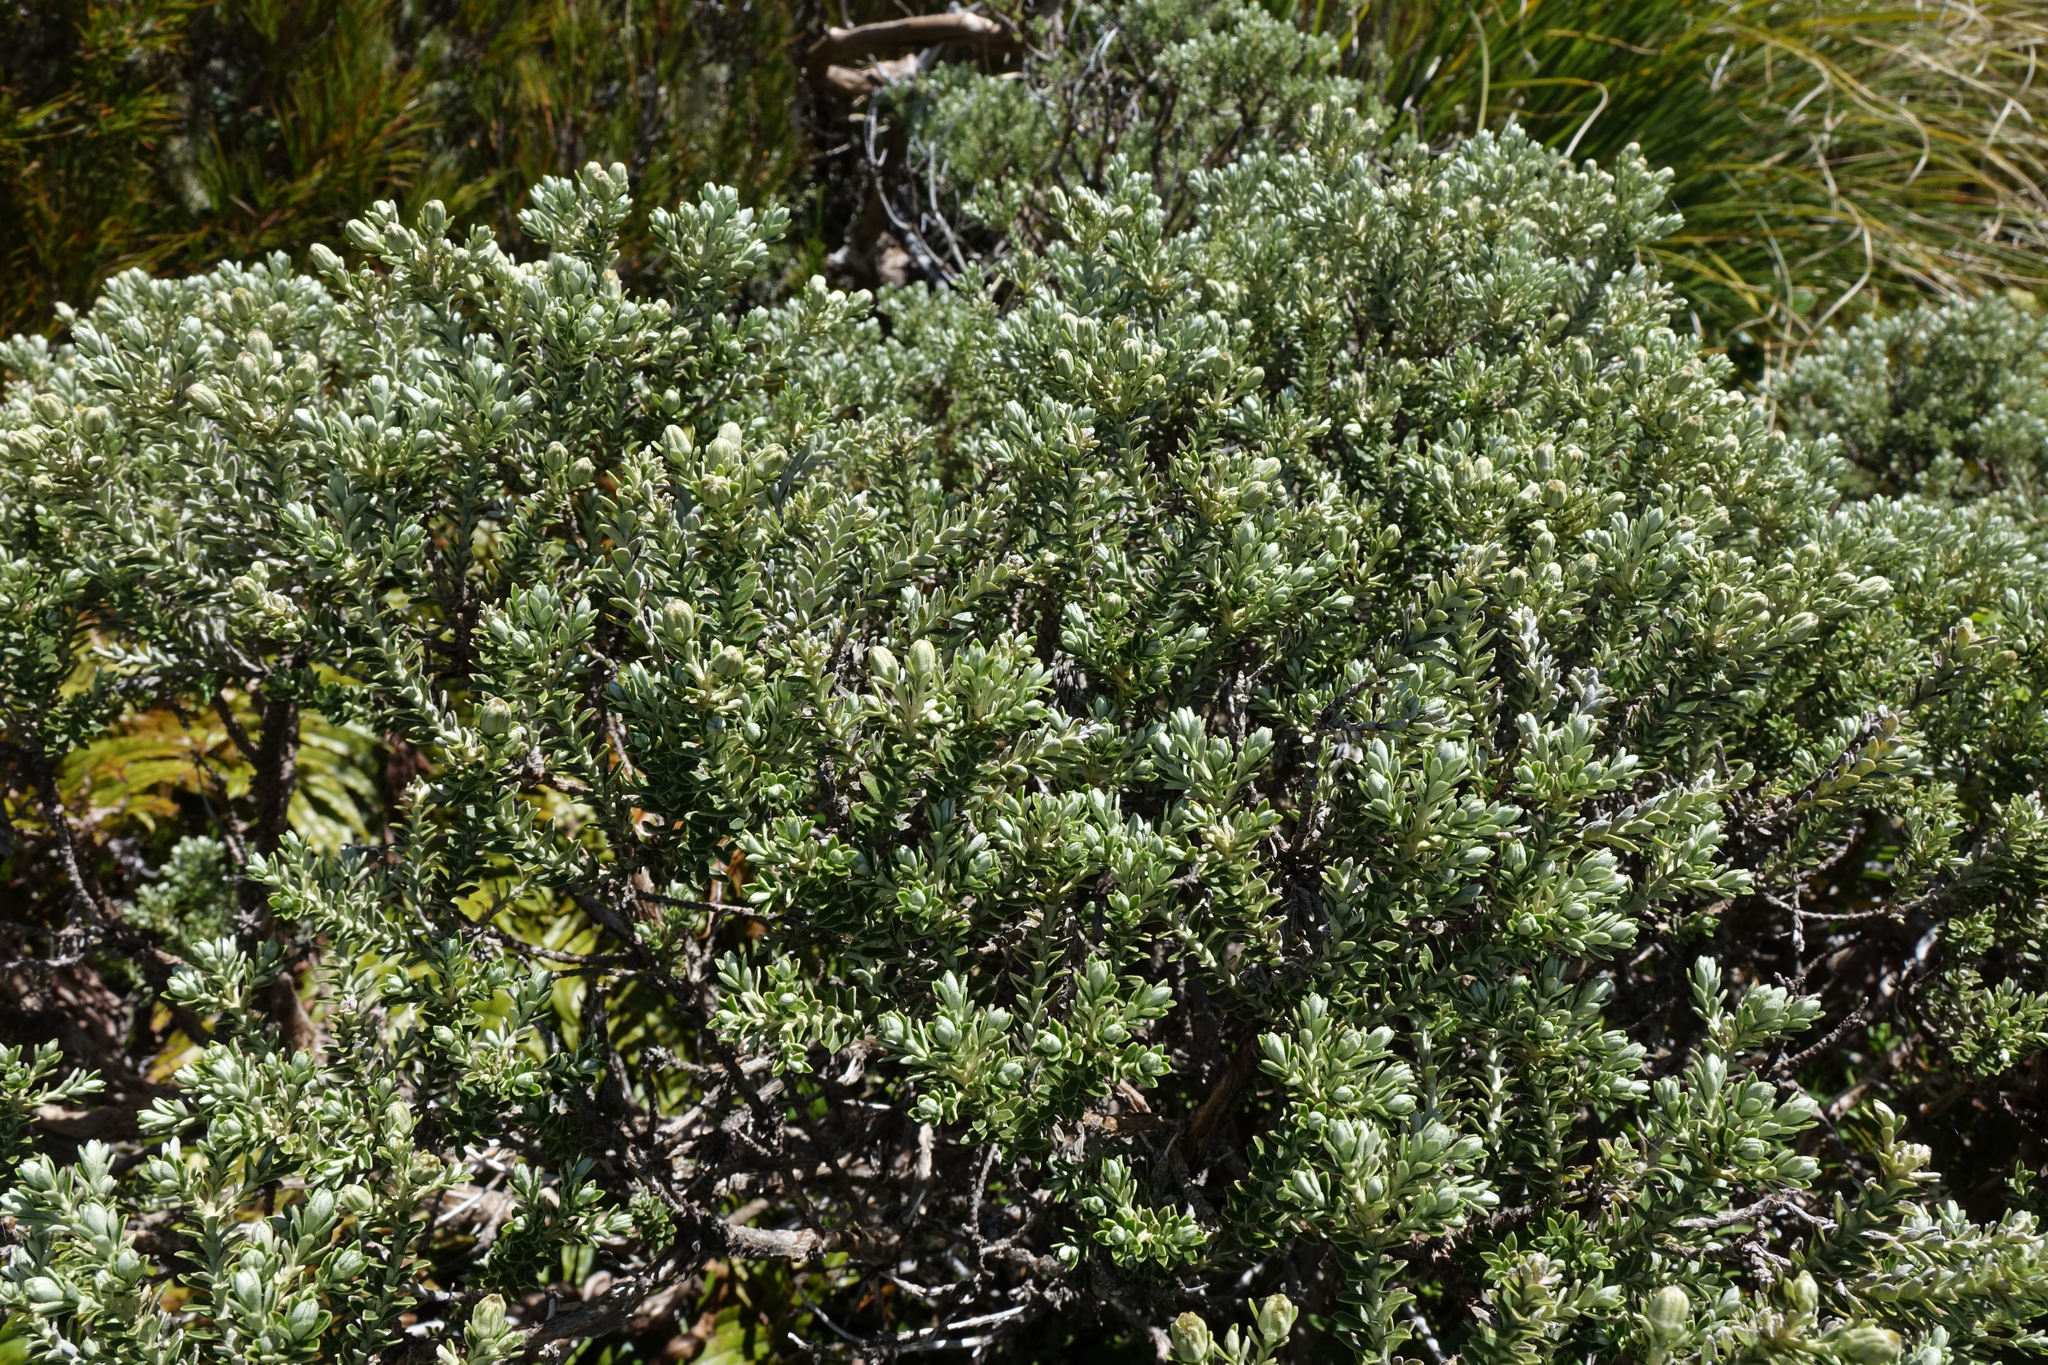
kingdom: Plantae
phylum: Tracheophyta
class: Magnoliopsida
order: Asterales
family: Asteraceae
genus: Brachyglottis
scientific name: Brachyglottis cassinioides
